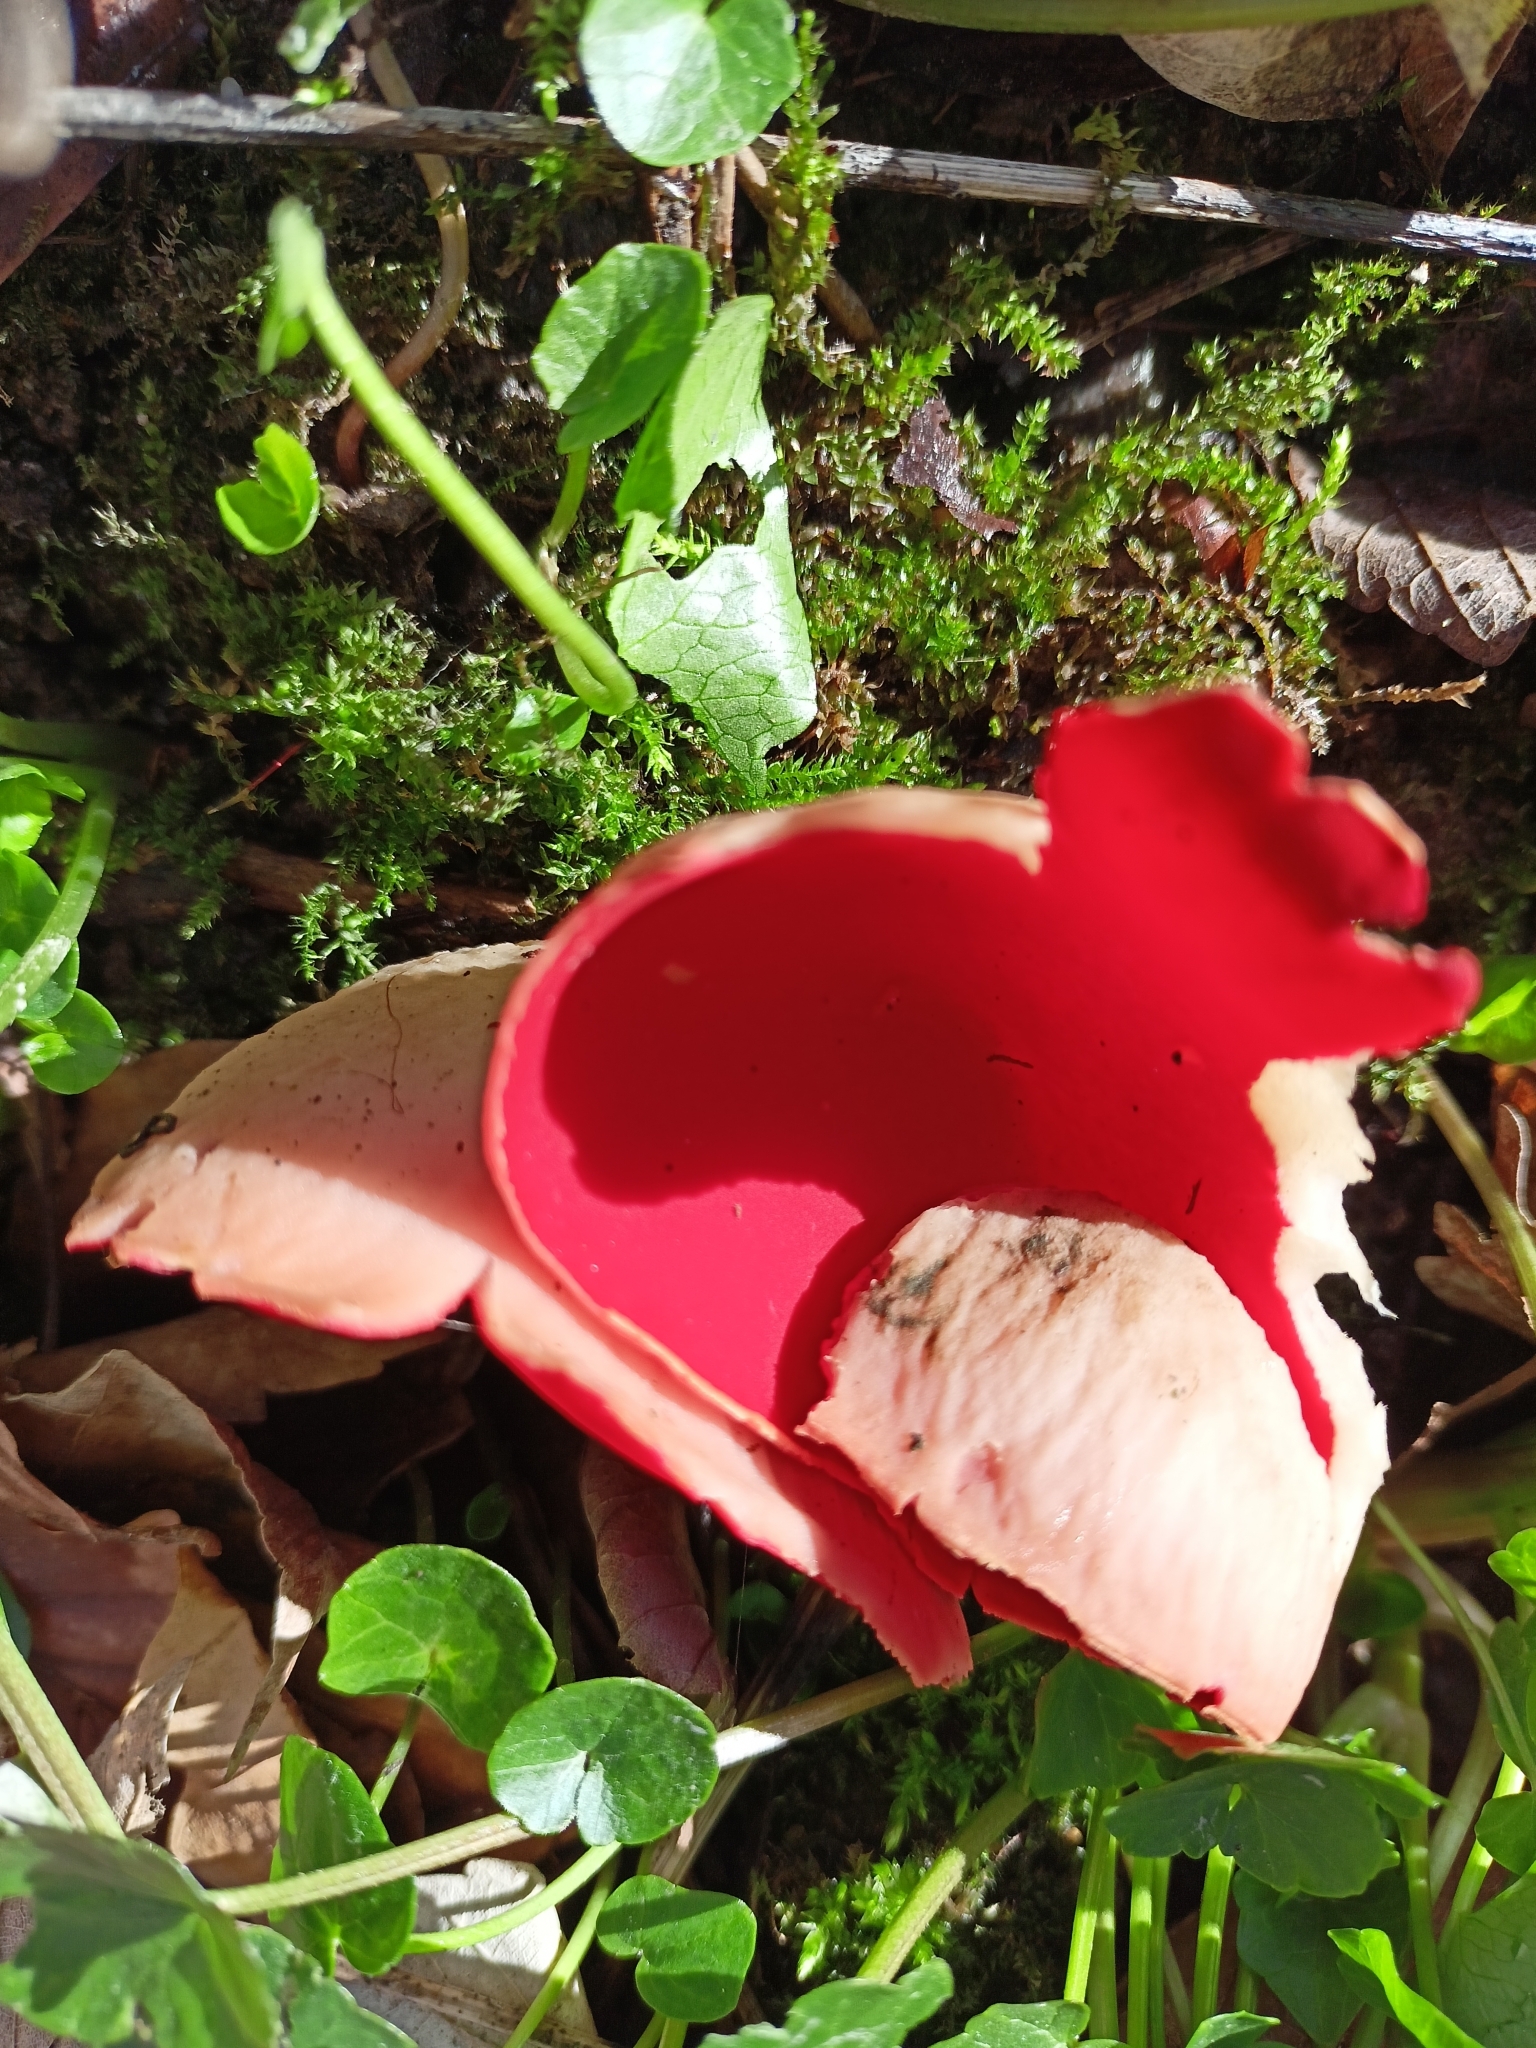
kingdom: Fungi
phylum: Ascomycota
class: Pezizomycetes
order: Pezizales
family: Sarcoscyphaceae
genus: Sarcoscypha
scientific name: Sarcoscypha
